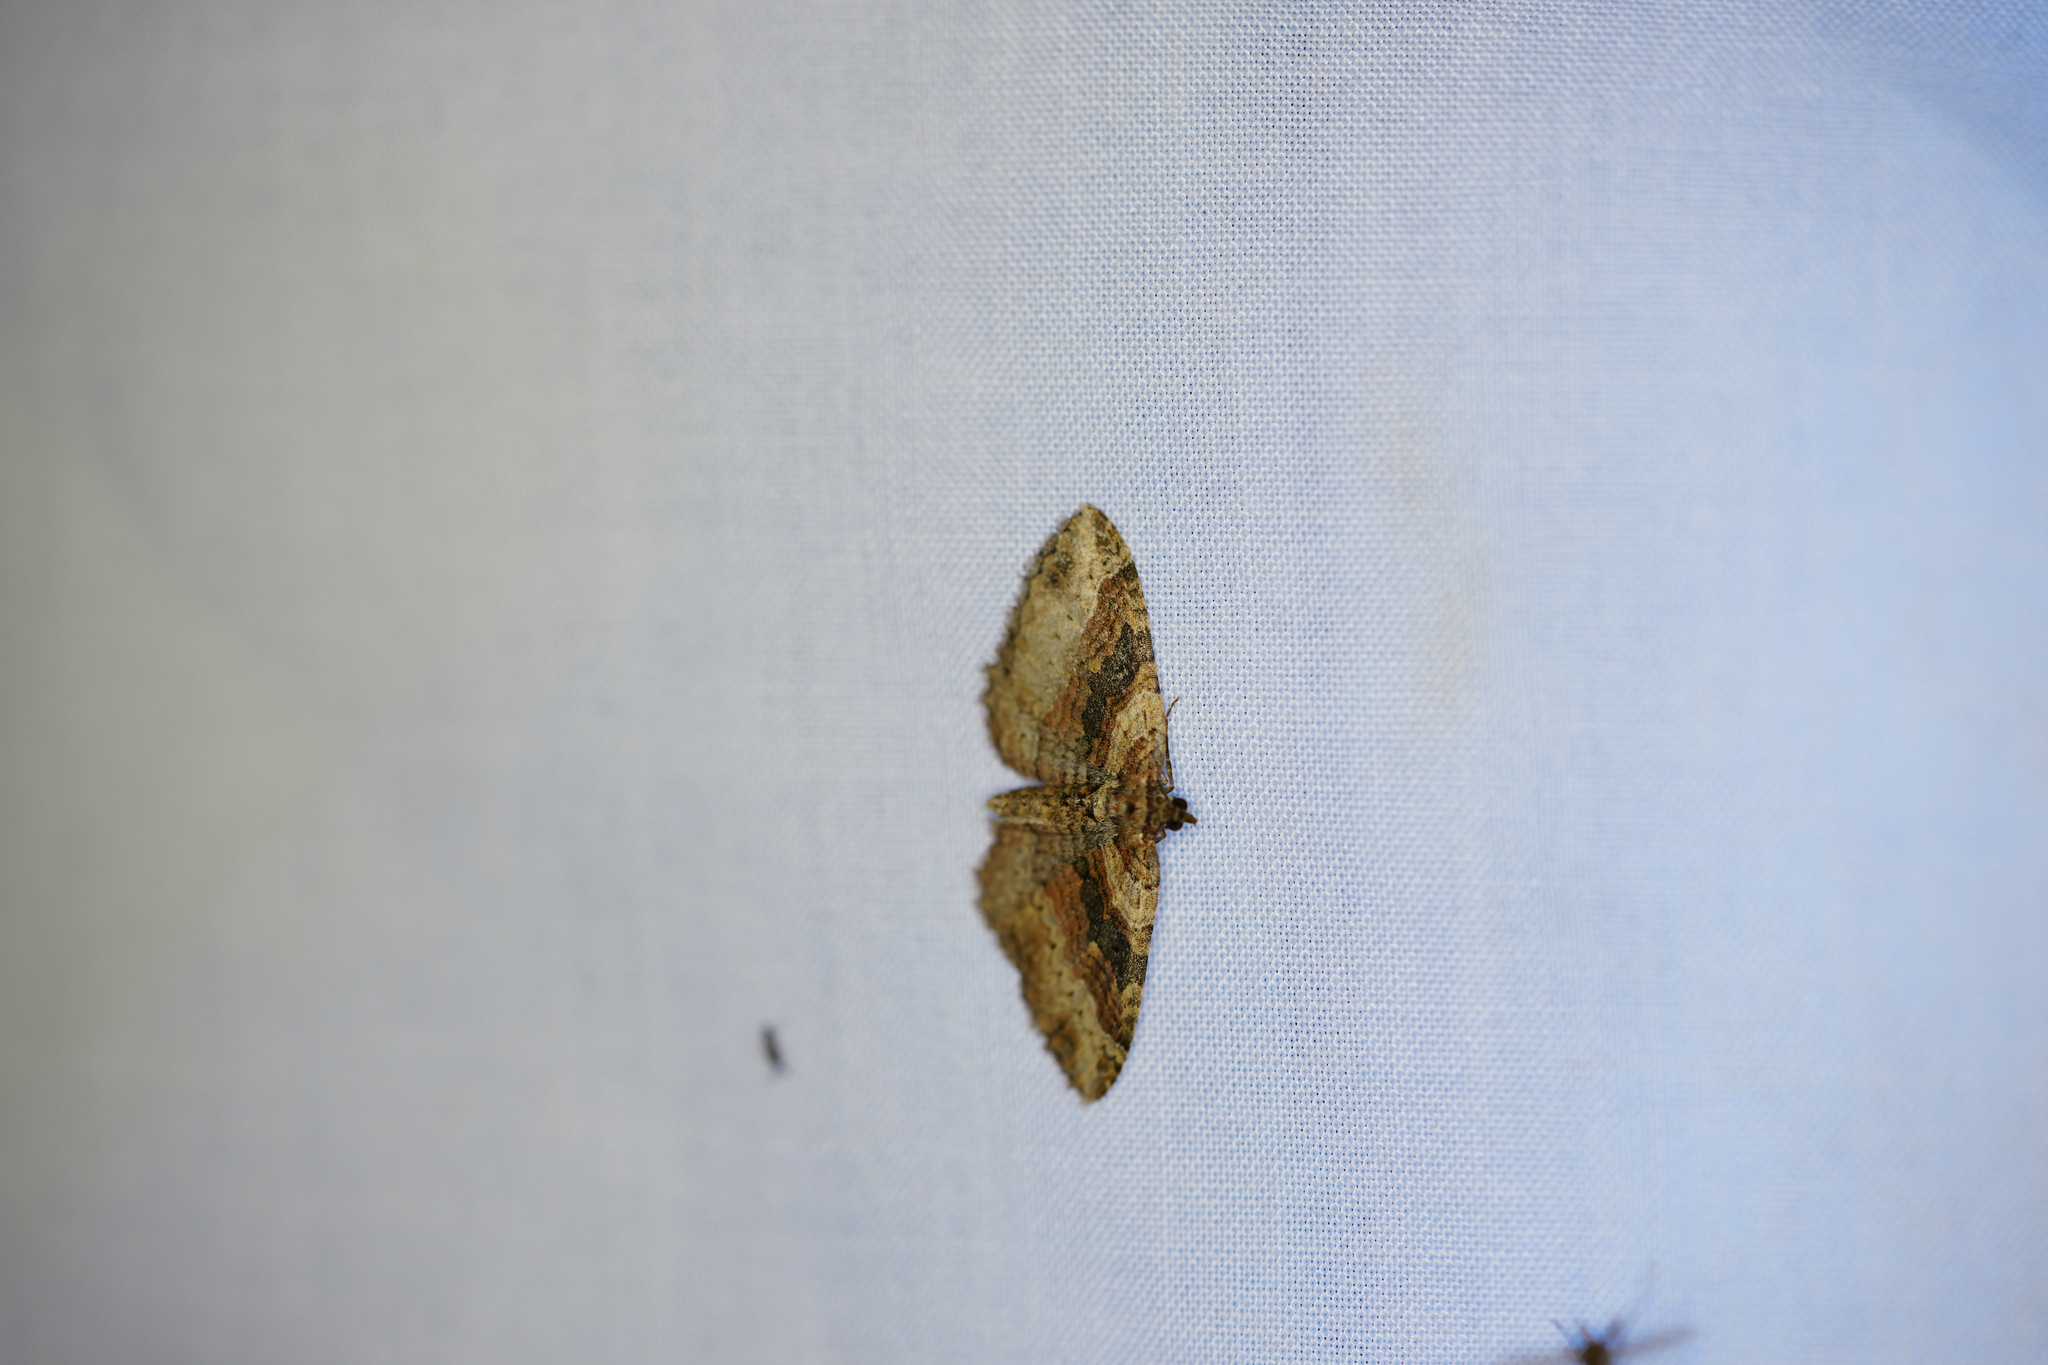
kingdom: Animalia
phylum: Arthropoda
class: Insecta
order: Lepidoptera
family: Geometridae
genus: Costaconvexa
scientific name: Costaconvexa centrostrigaria
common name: Bent-line carpet
